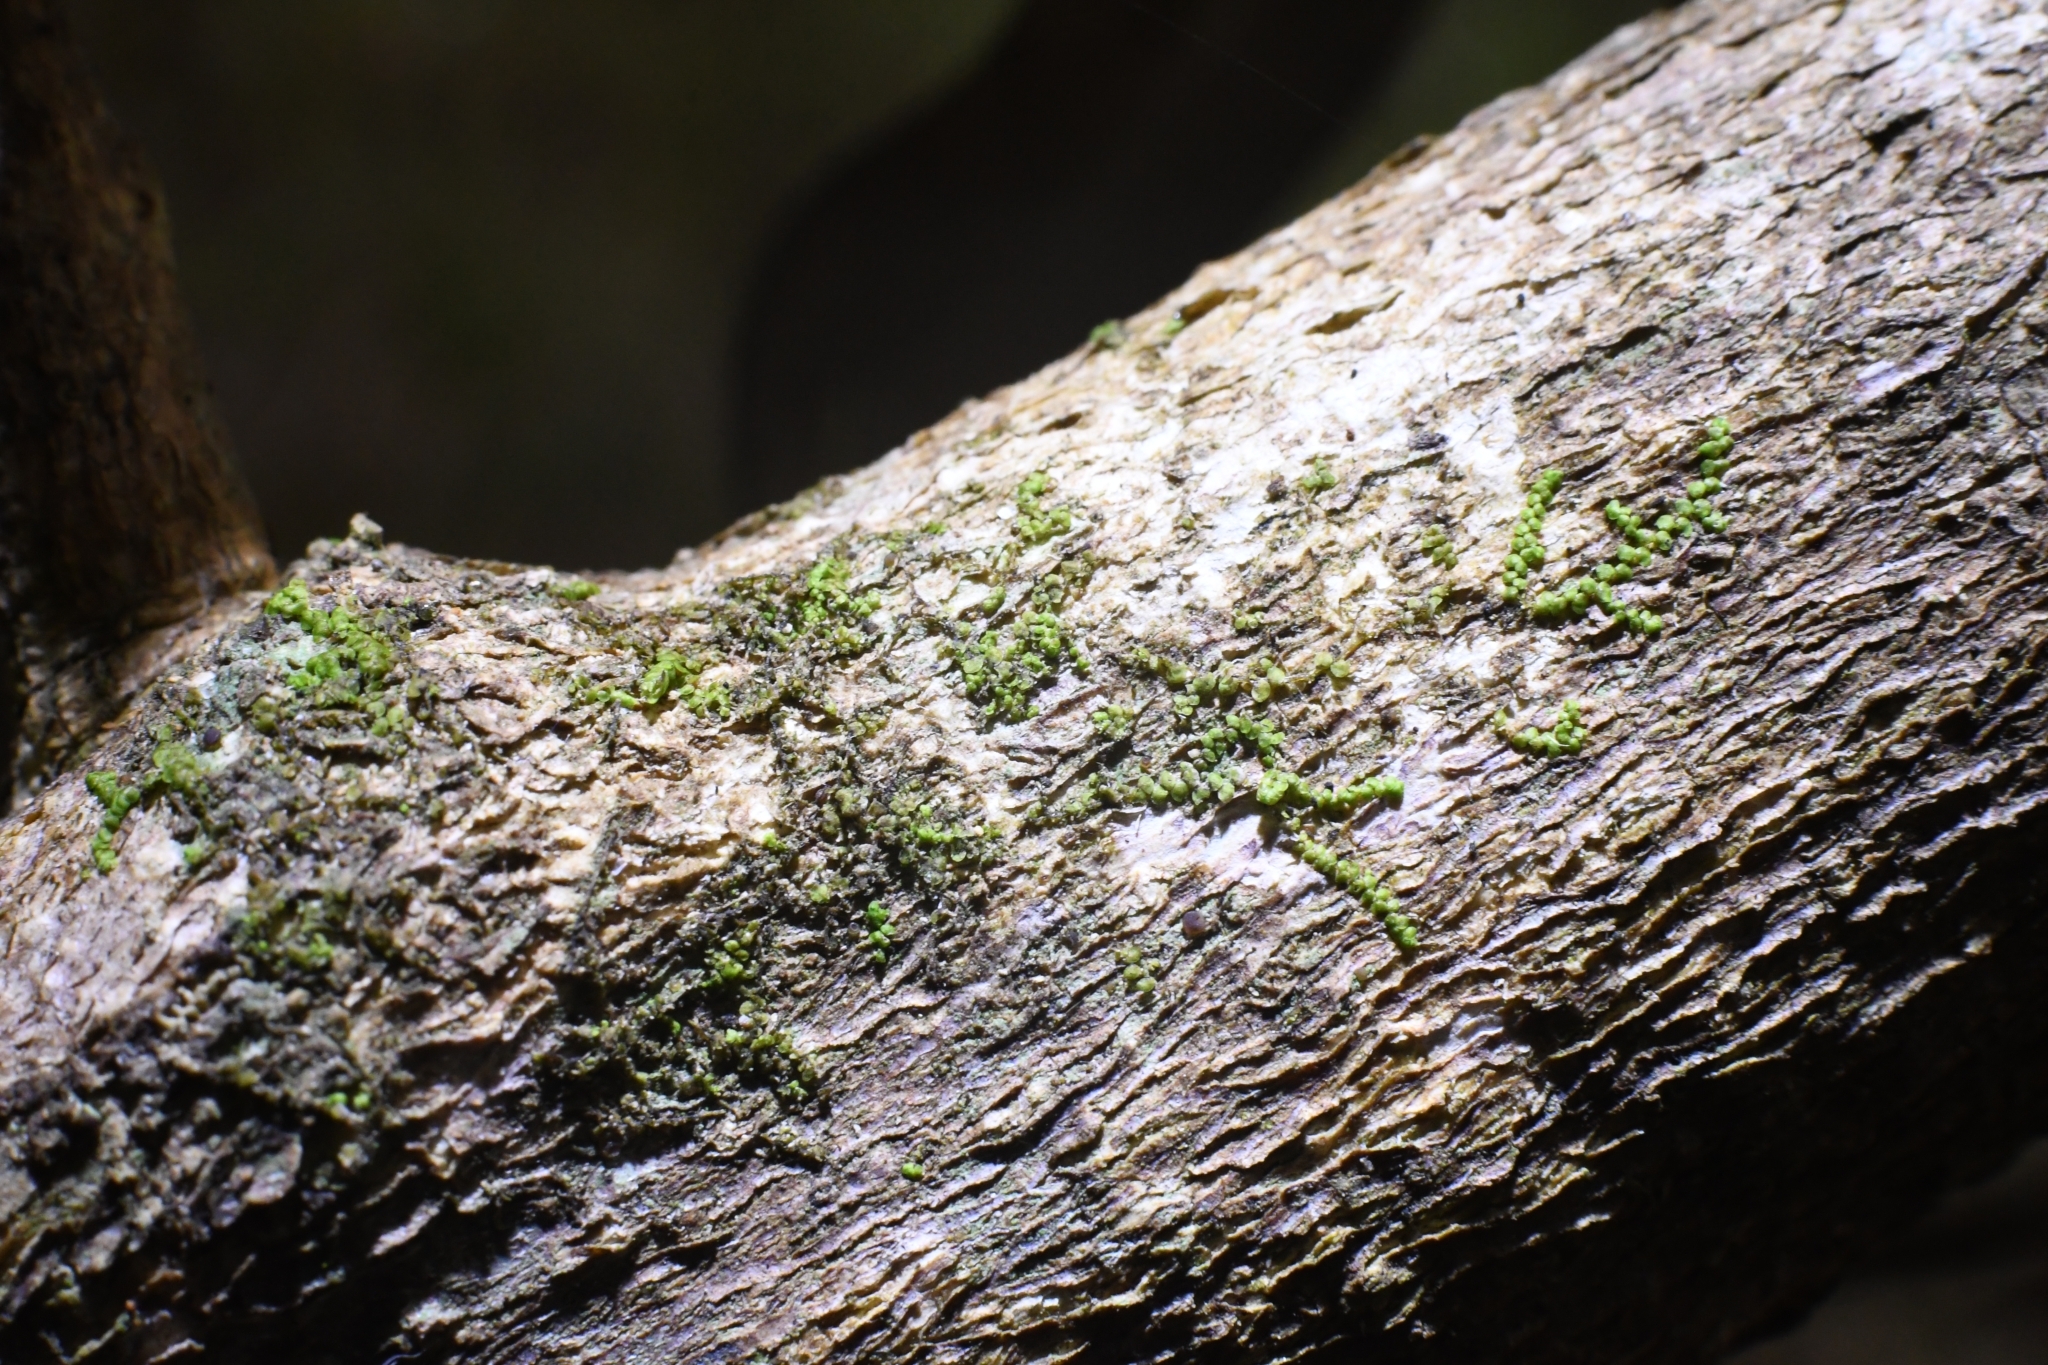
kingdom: Plantae
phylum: Marchantiophyta
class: Jungermanniopsida
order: Porellales
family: Lejeuneaceae
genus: Siphonolejeunea
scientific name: Siphonolejeunea occidentalis
